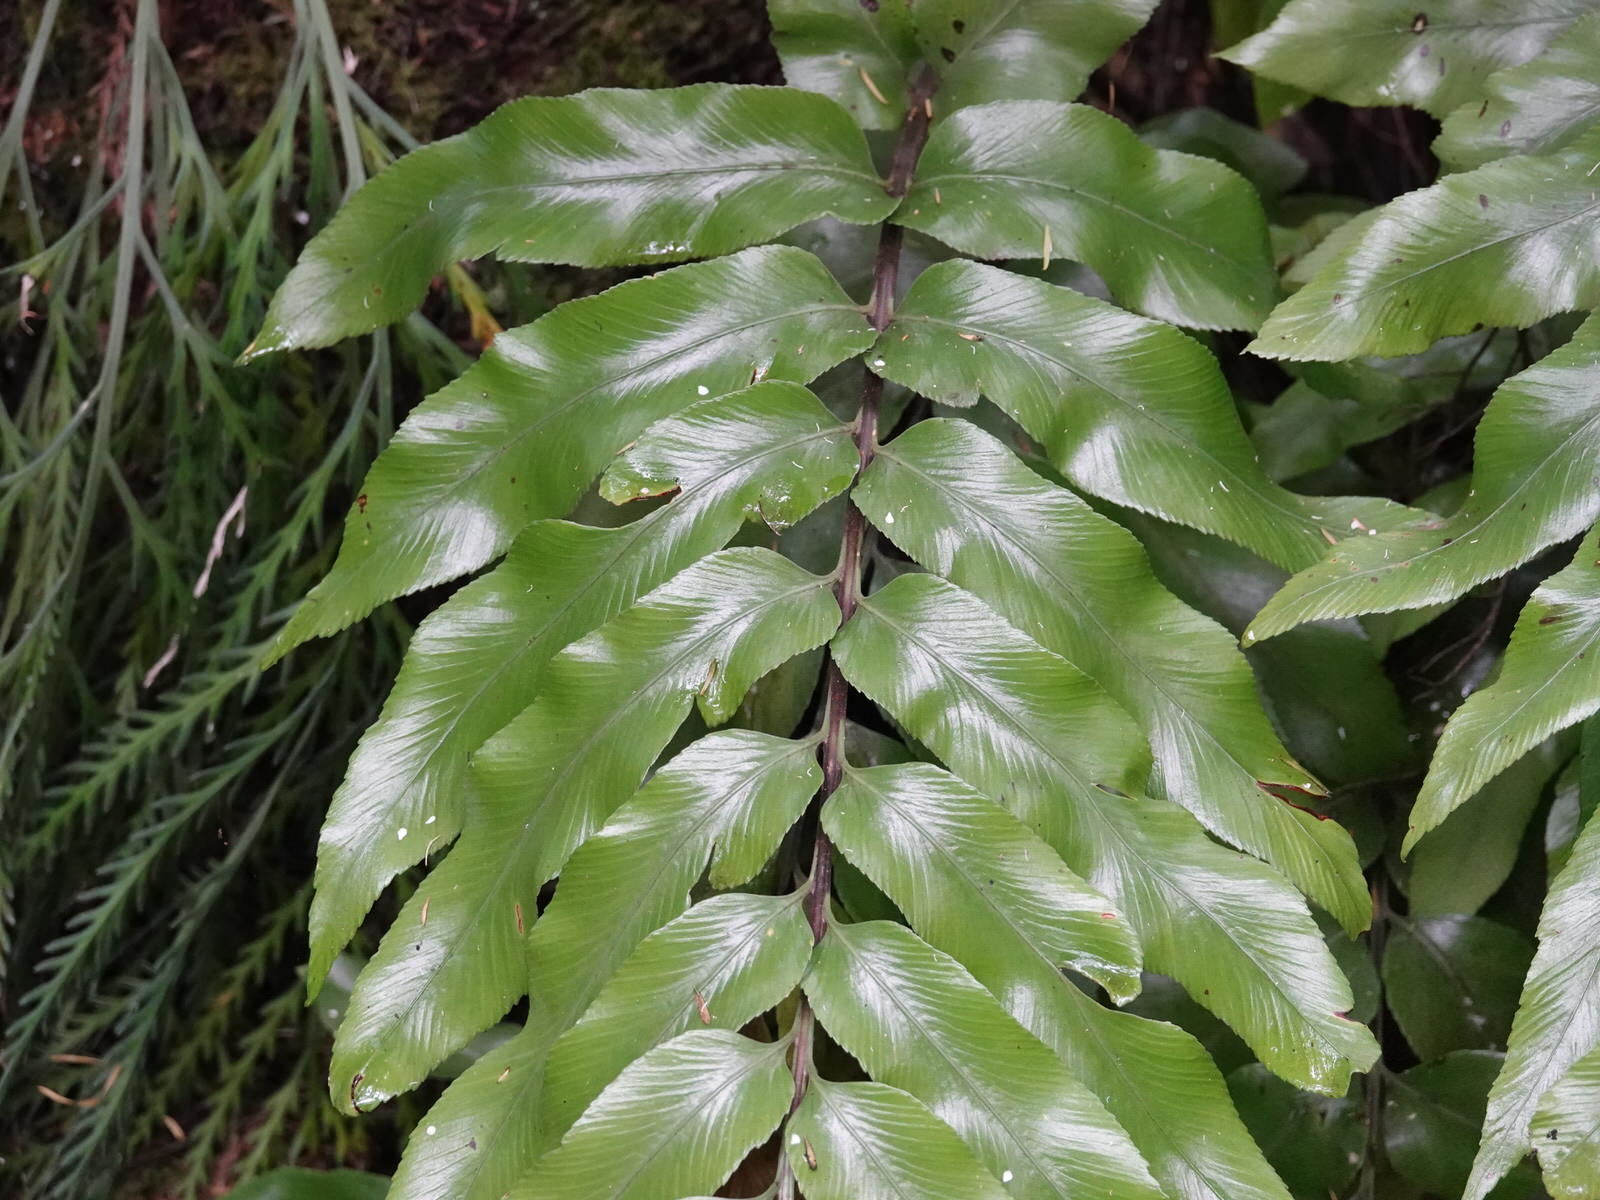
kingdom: Plantae
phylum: Tracheophyta
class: Polypodiopsida
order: Polypodiales
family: Aspleniaceae
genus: Asplenium
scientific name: Asplenium oblongifolium
